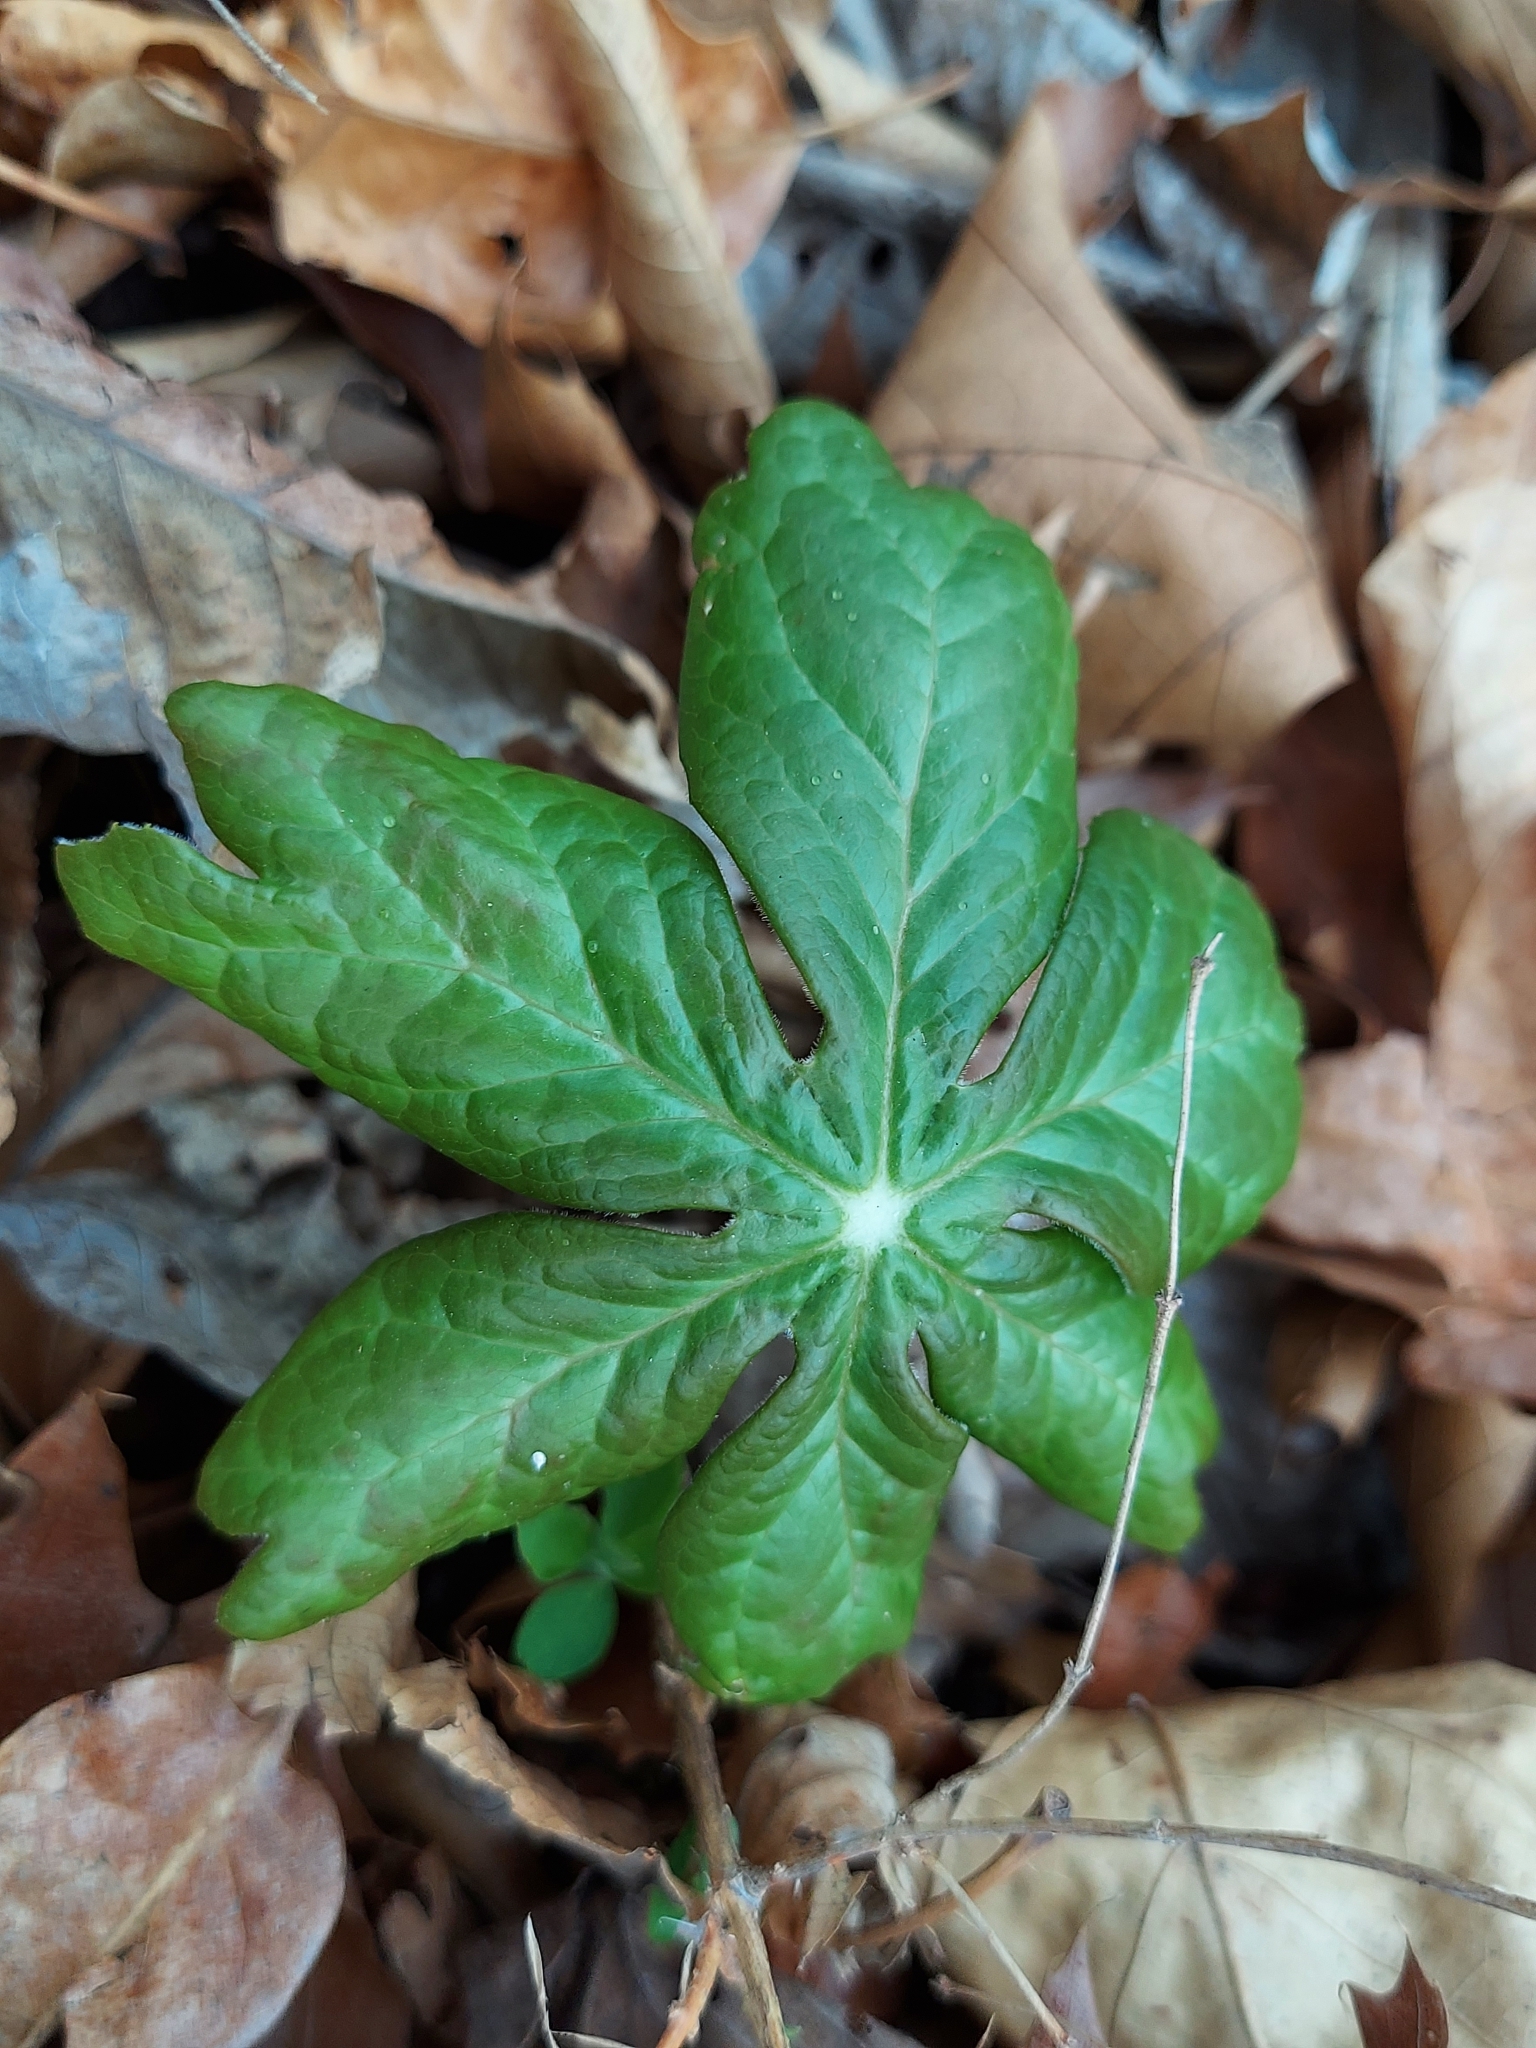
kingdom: Plantae
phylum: Tracheophyta
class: Magnoliopsida
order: Ranunculales
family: Berberidaceae
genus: Podophyllum
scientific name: Podophyllum peltatum
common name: Wild mandrake
